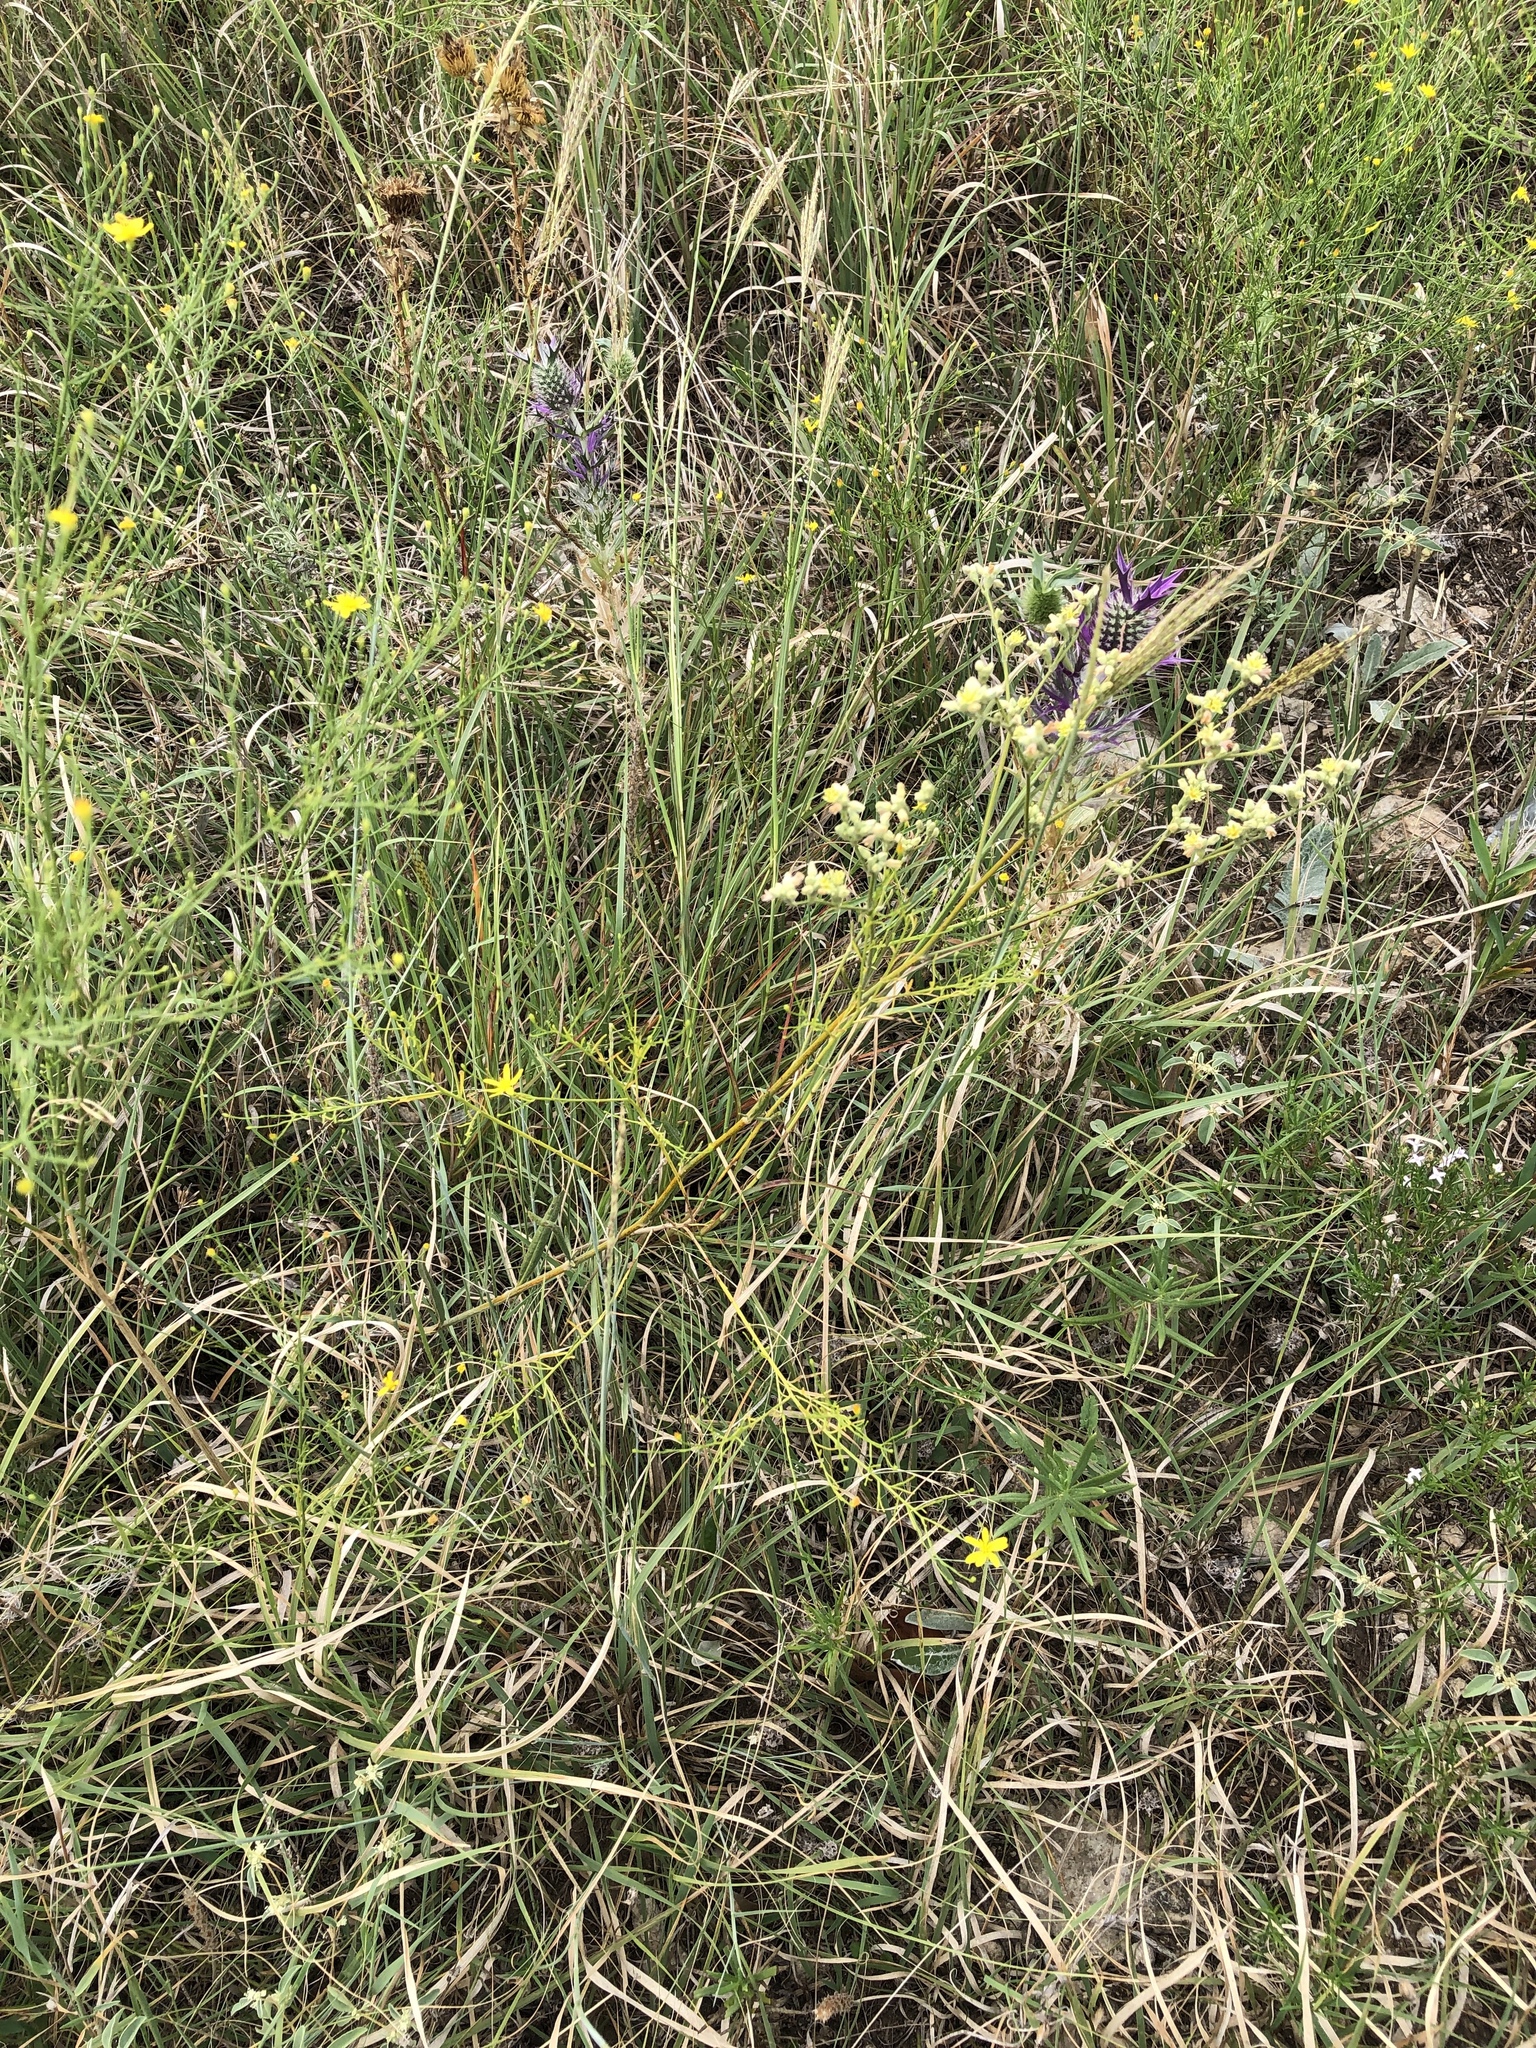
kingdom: Plantae
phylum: Tracheophyta
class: Magnoliopsida
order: Caryophyllales
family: Polygonaceae
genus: Eriogonum
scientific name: Eriogonum longifolium
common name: Longleaf wild buckwheat
